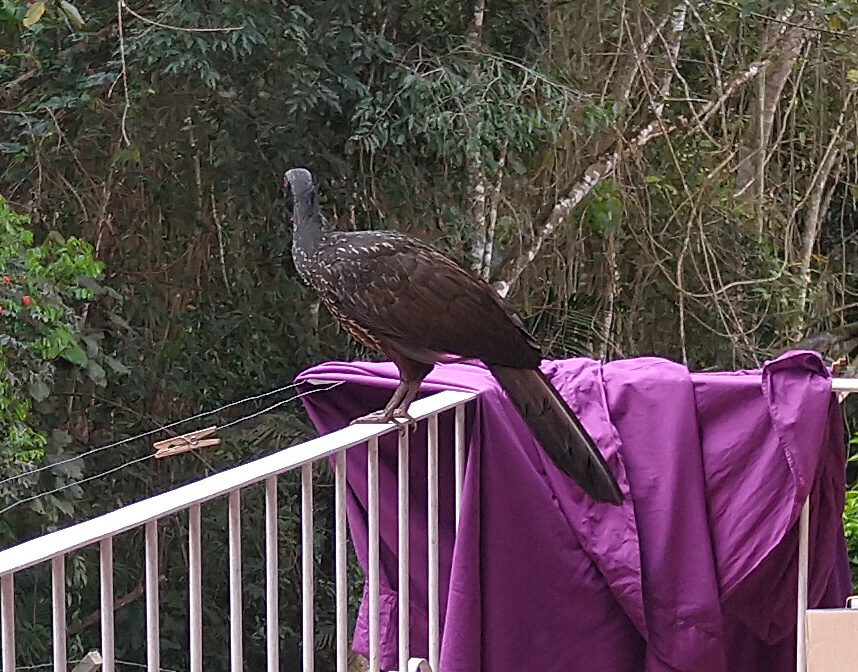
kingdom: Animalia
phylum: Chordata
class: Aves
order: Galliformes
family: Cracidae
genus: Penelope
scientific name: Penelope obscura
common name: Dusky-legged guan
